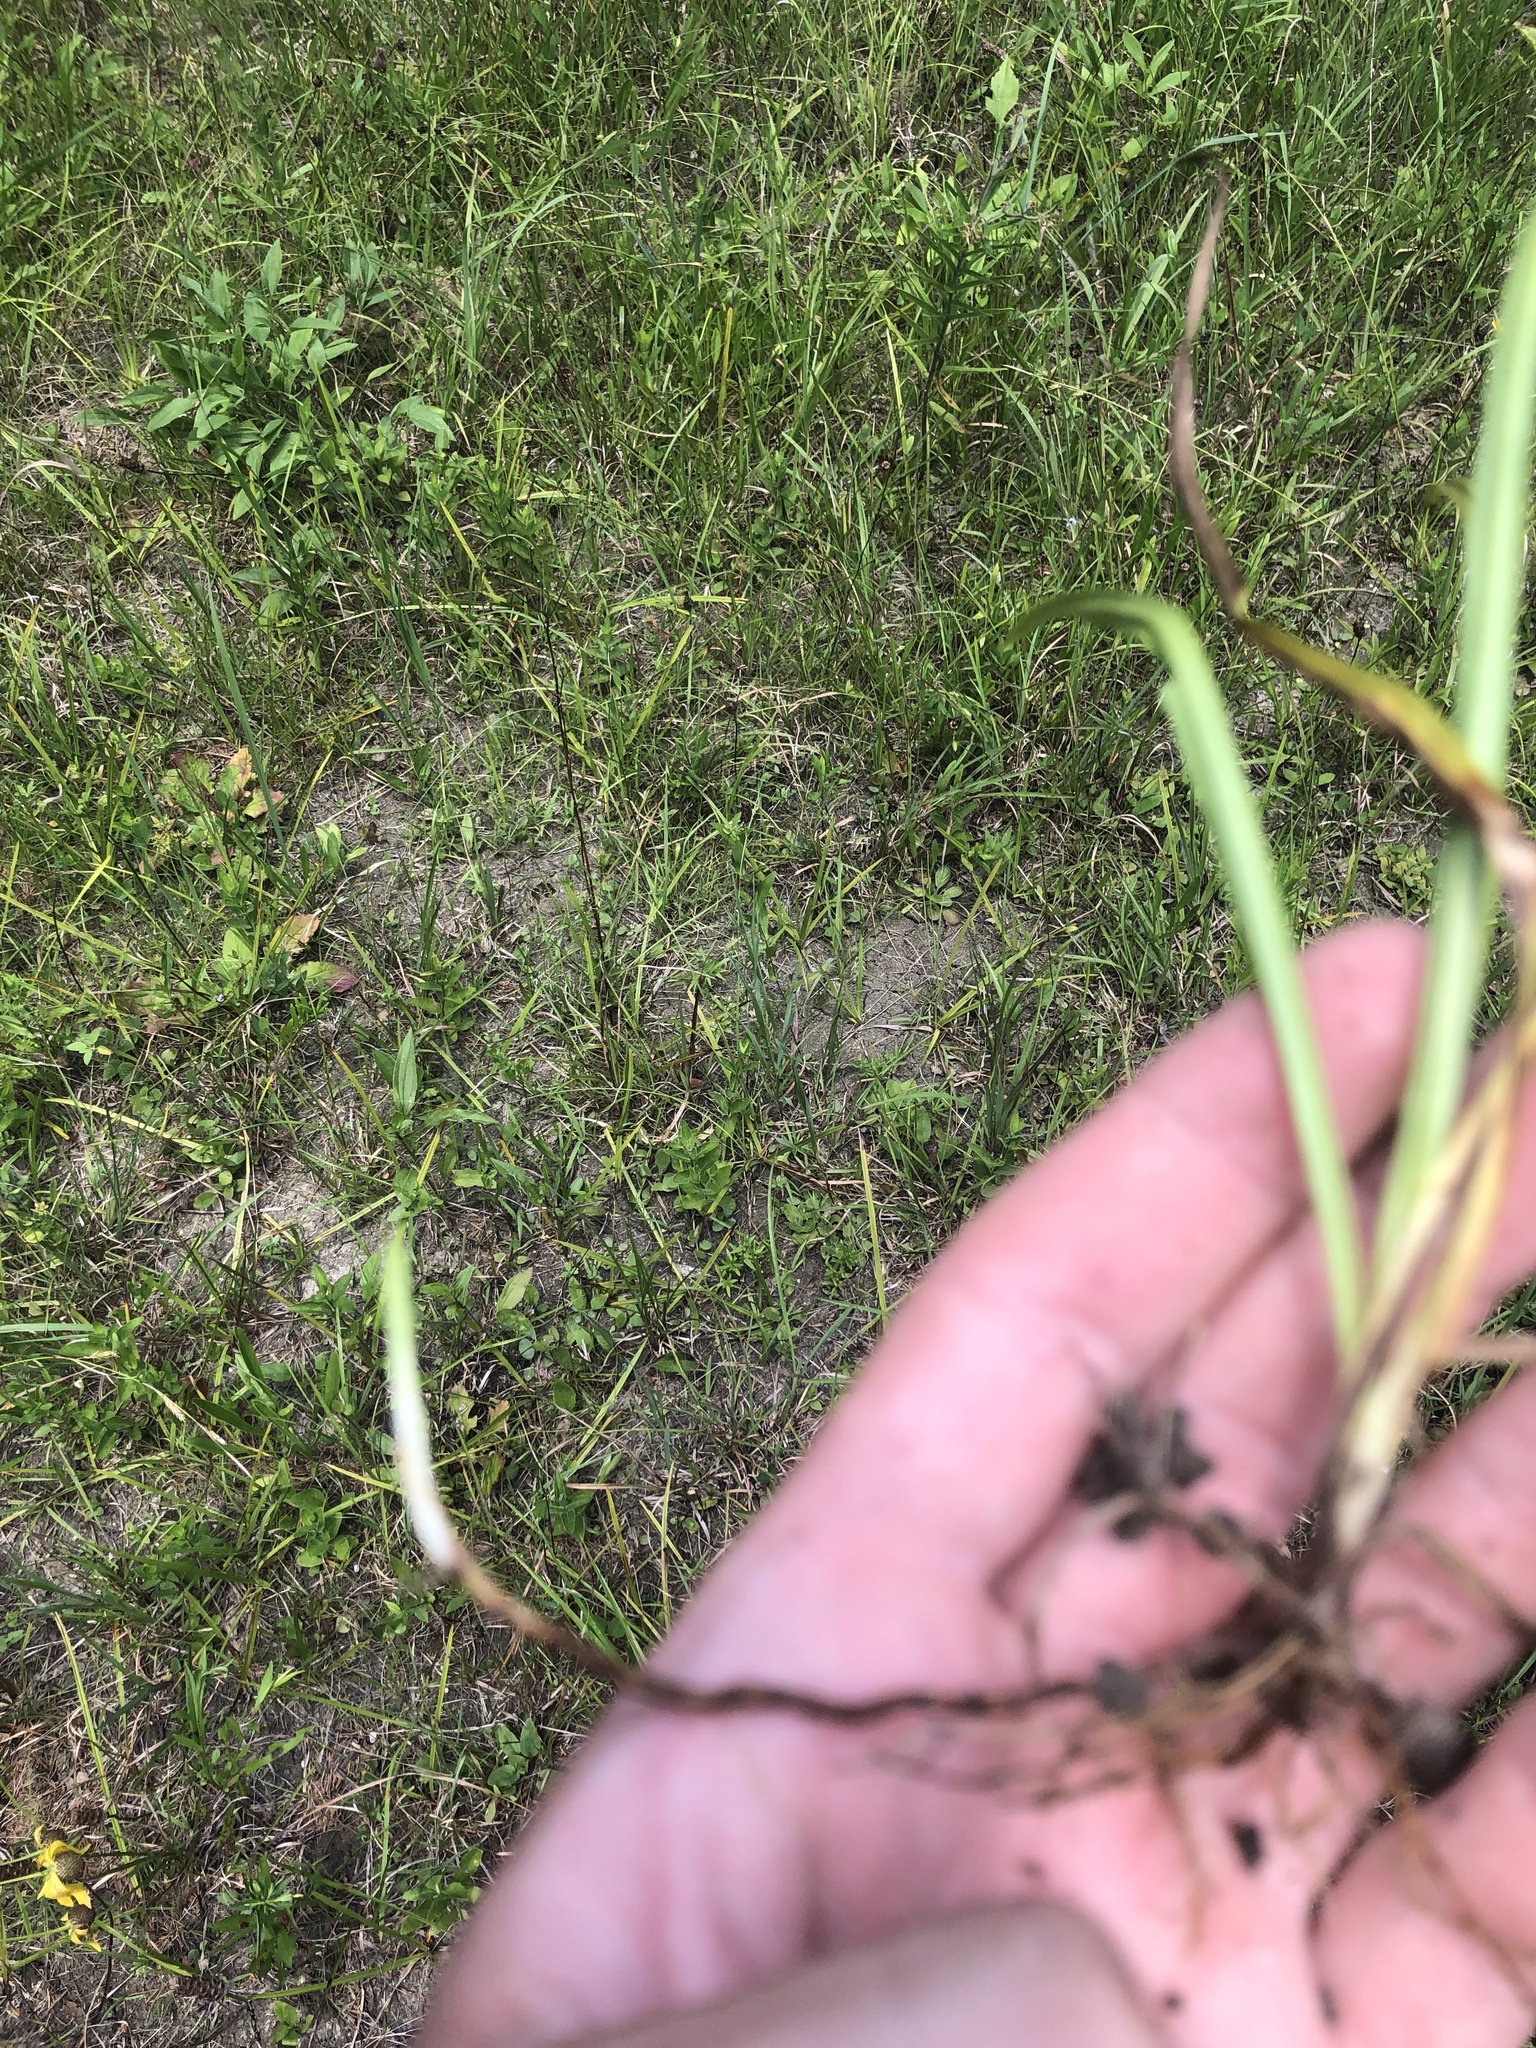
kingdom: Plantae
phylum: Tracheophyta
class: Liliopsida
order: Poales
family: Cyperaceae
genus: Carex
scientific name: Carex microdonta
